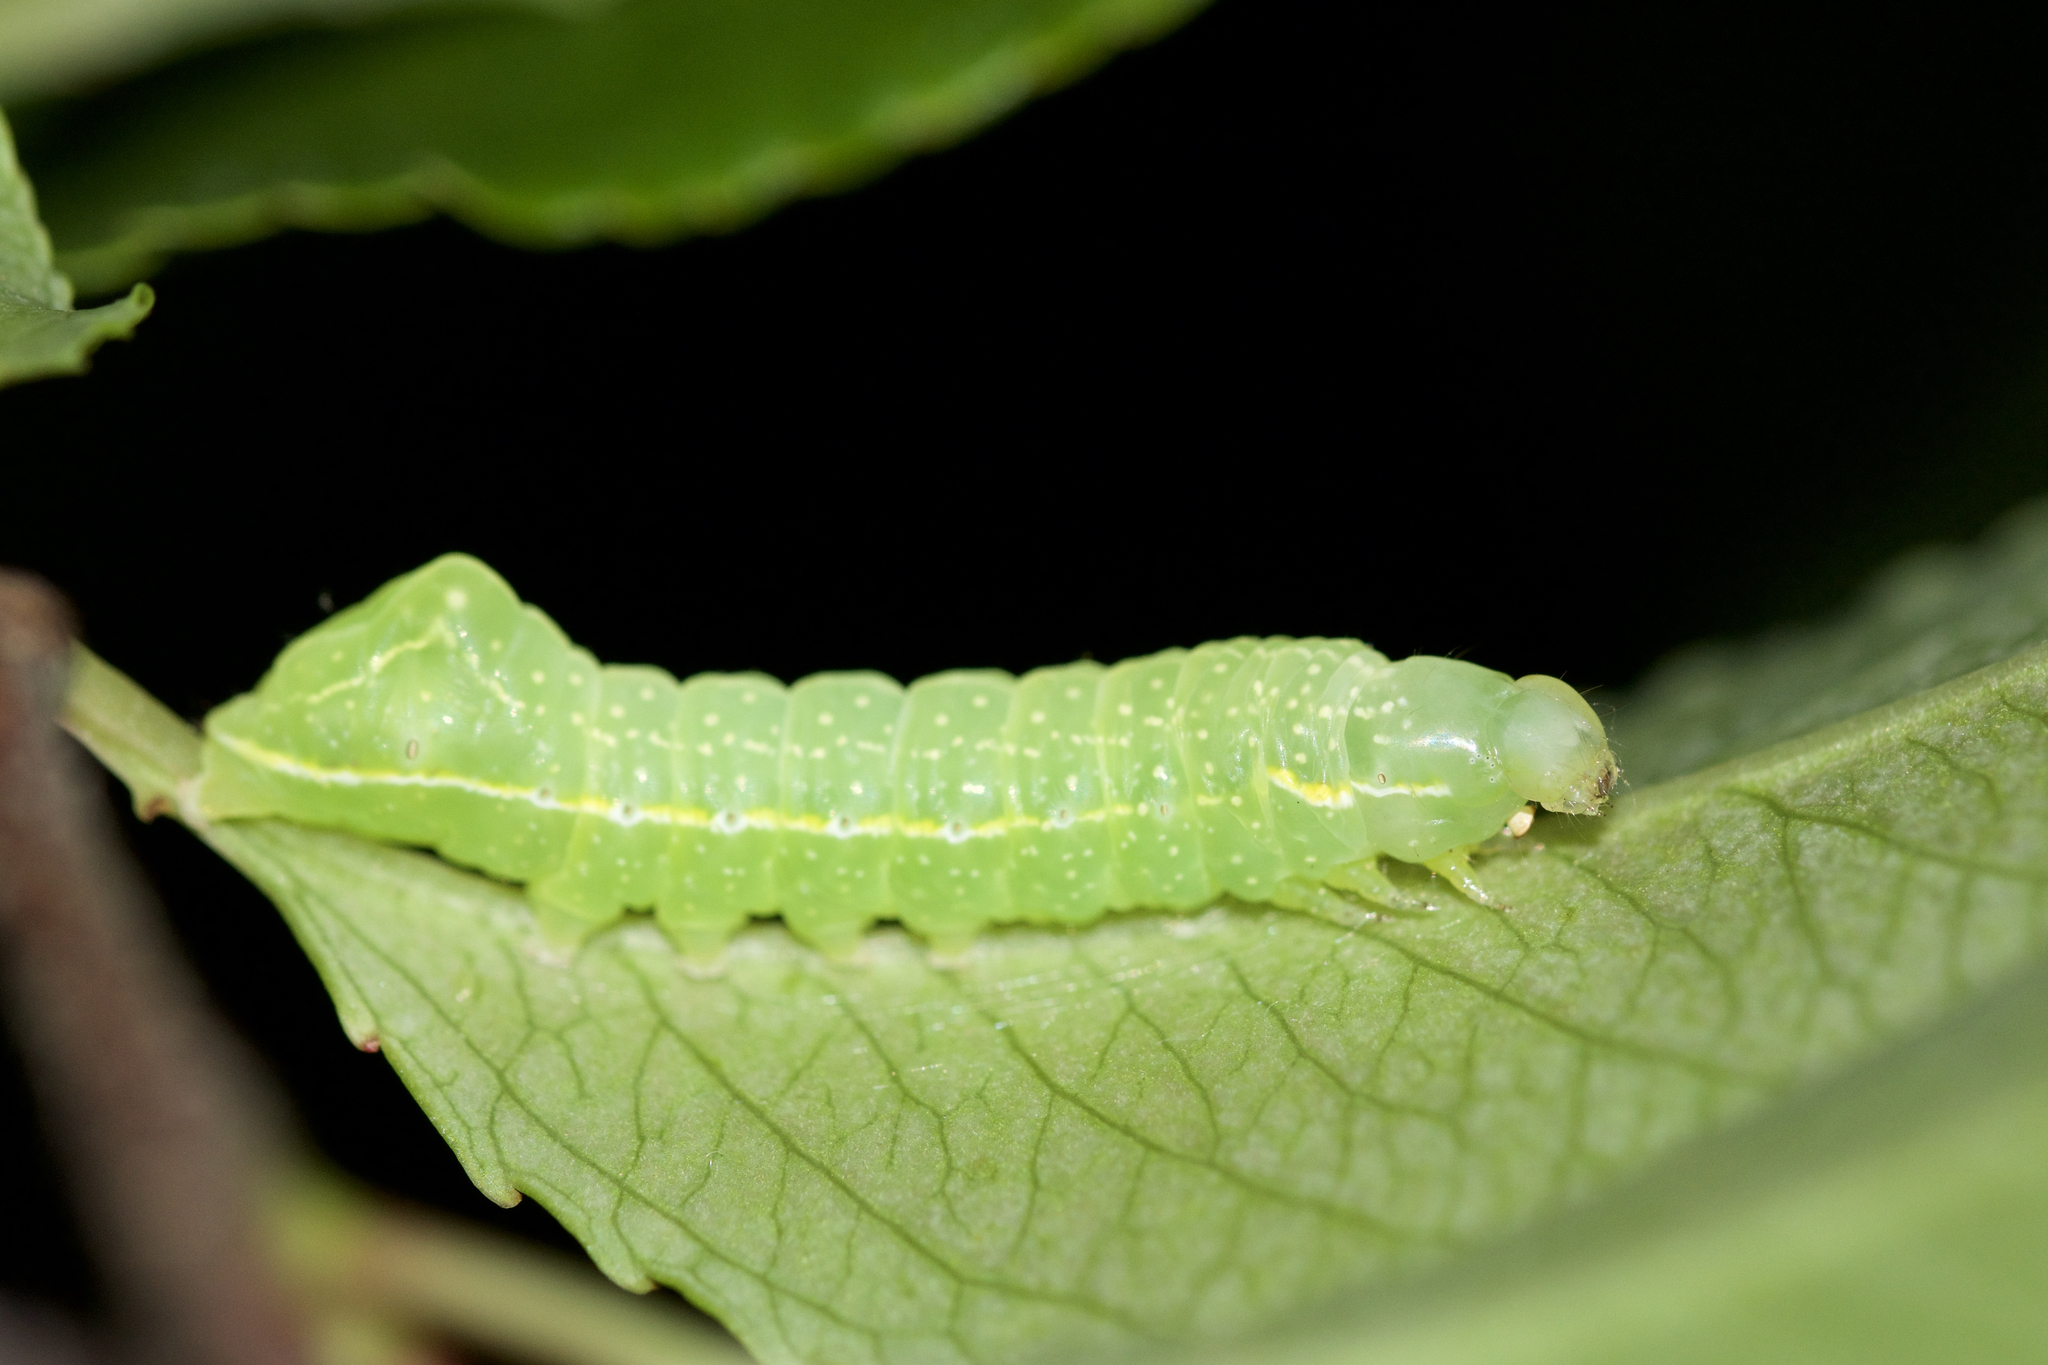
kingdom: Animalia
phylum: Arthropoda
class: Insecta
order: Lepidoptera
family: Noctuidae
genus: Amphipyra
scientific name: Amphipyra pyramidoides
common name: American copper underwing
